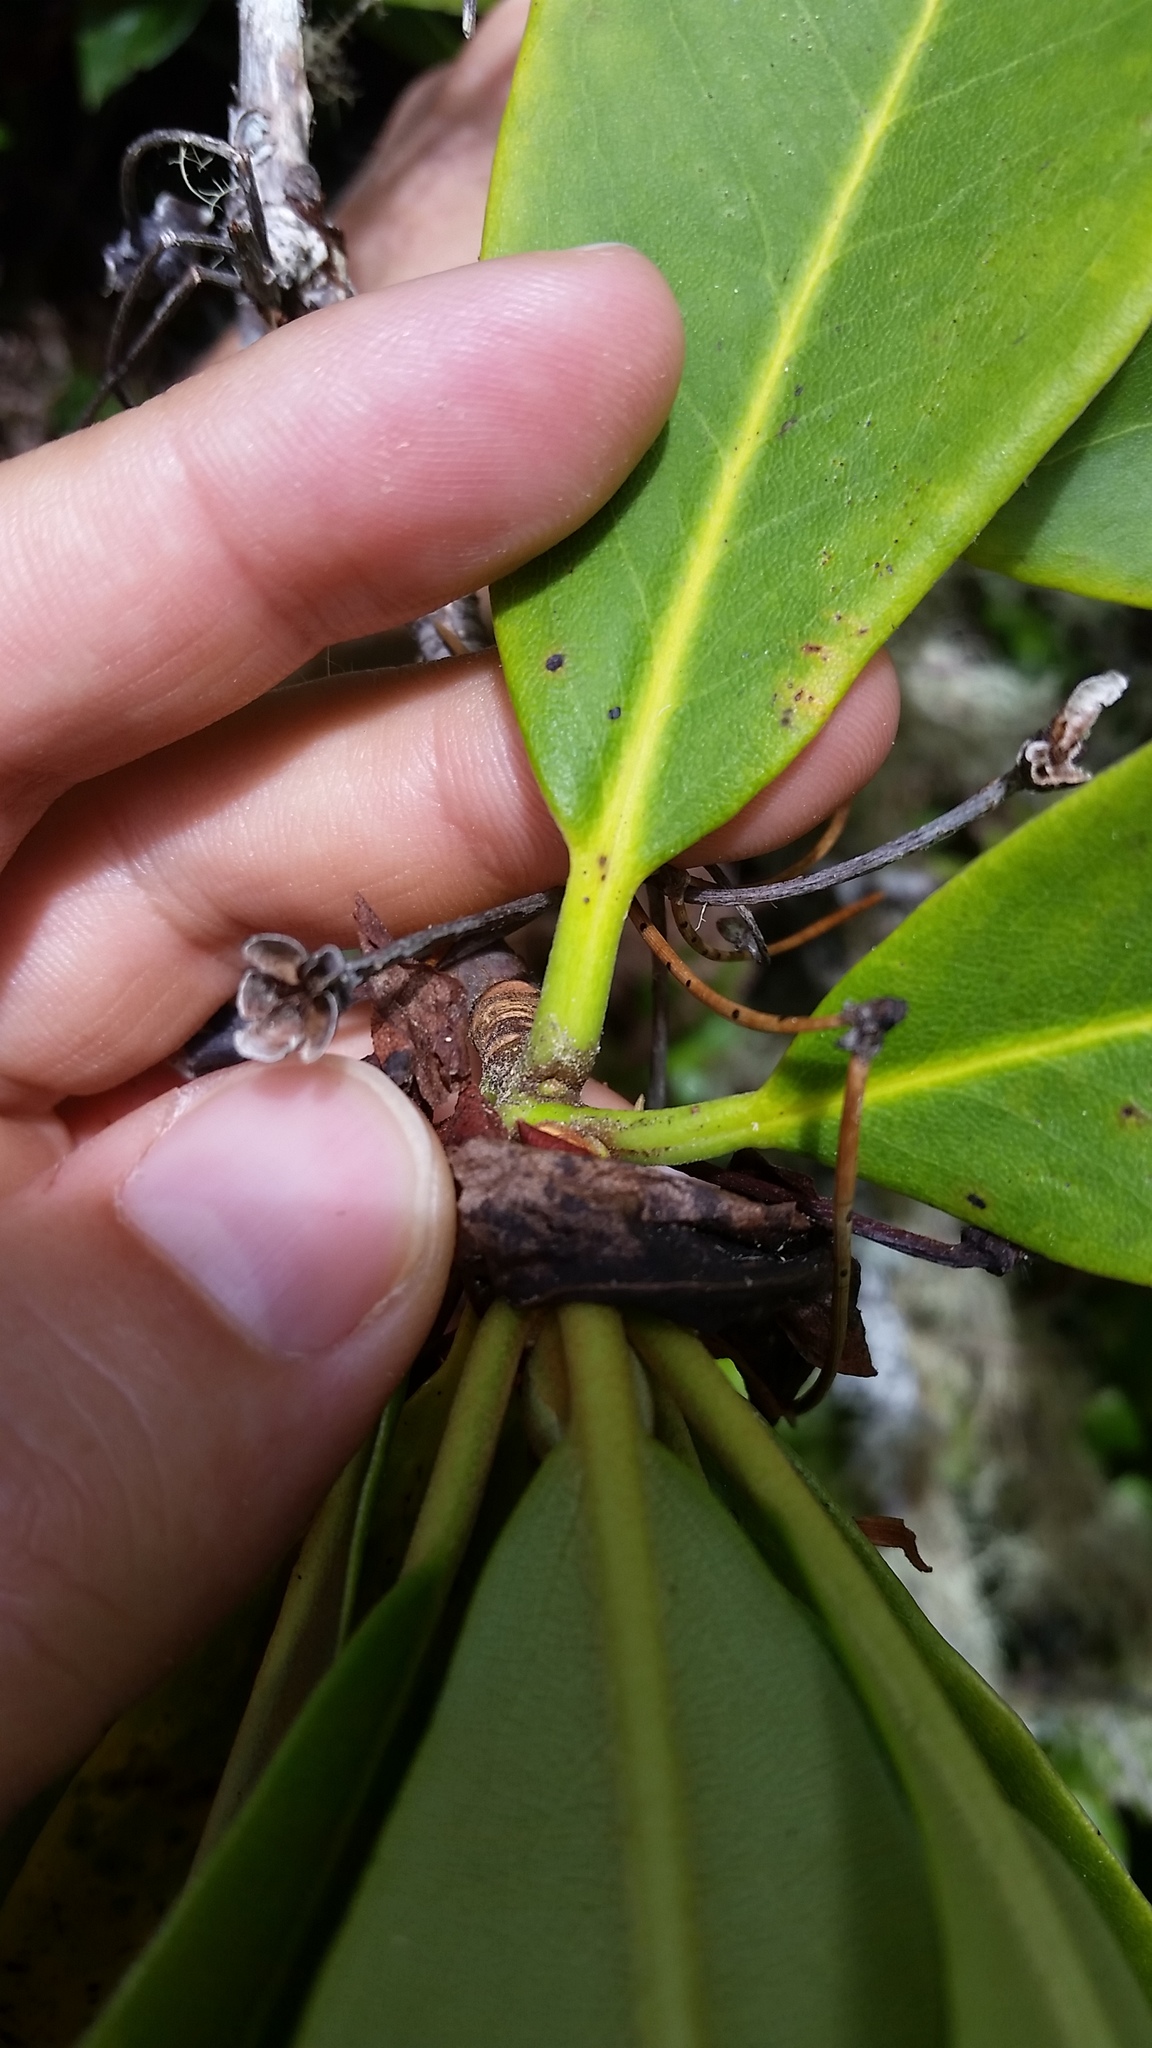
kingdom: Plantae
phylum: Tracheophyta
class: Magnoliopsida
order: Ericales
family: Ericaceae
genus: Rhododendron
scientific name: Rhododendron macrophyllum
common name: California rose bay
